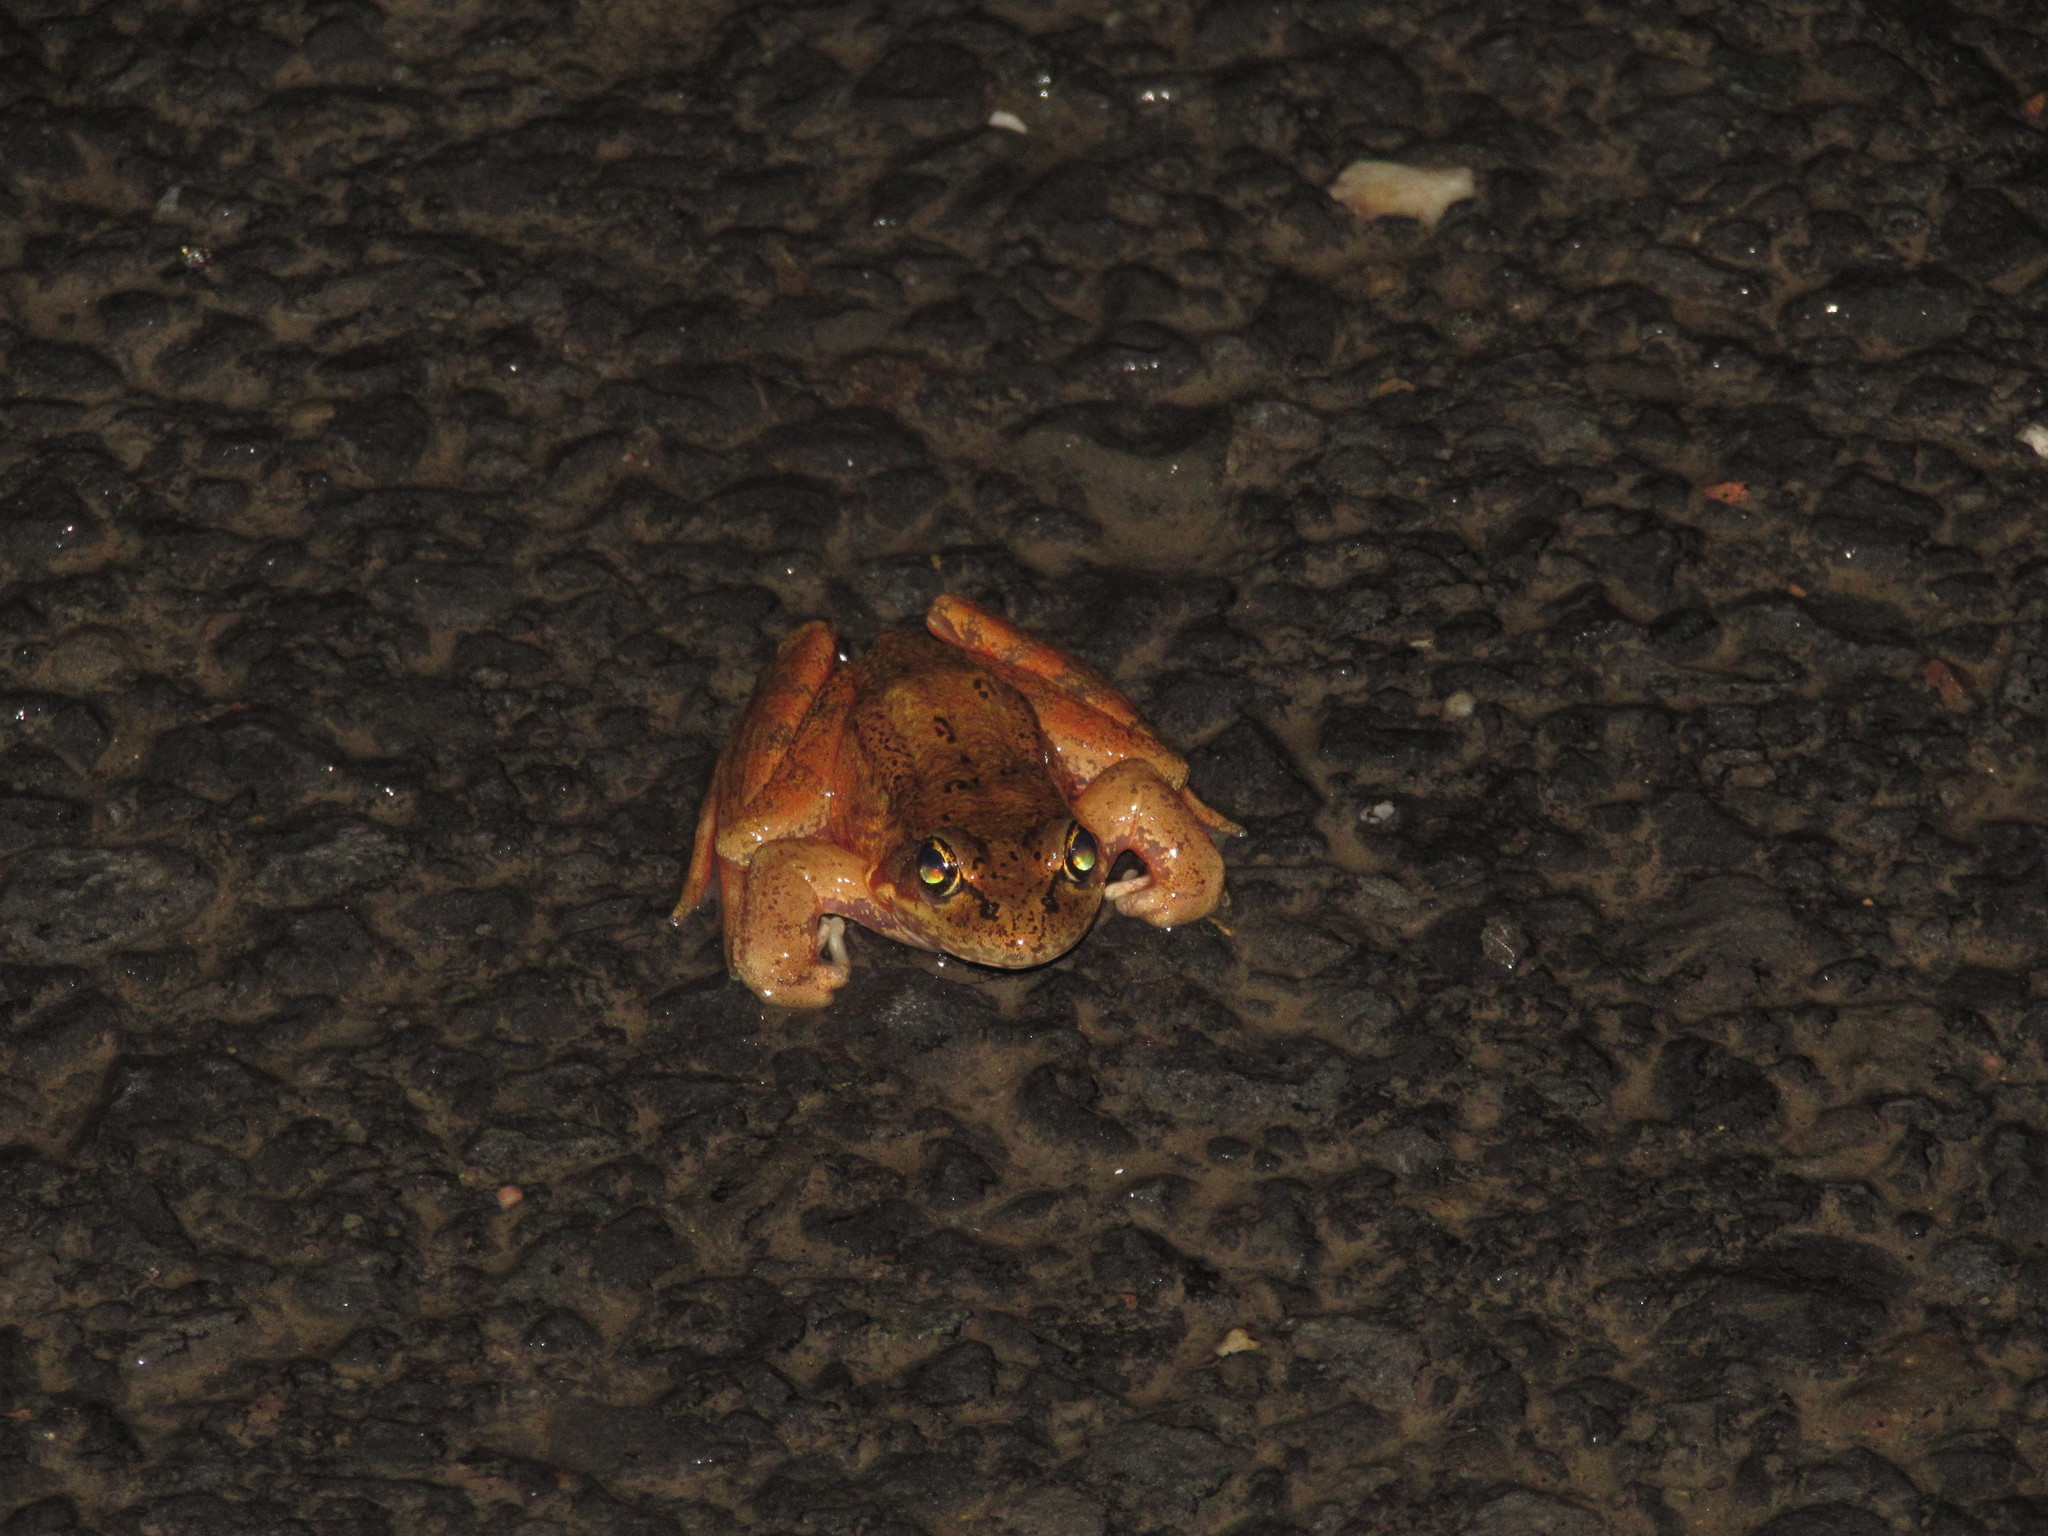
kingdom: Animalia
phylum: Chordata
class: Amphibia
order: Anura
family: Ranidae
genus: Rana
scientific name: Rana aurora
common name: Red-legged frog
